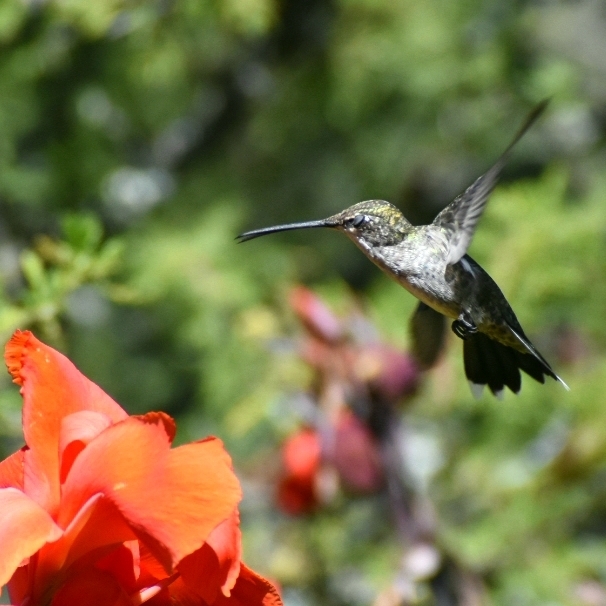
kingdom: Animalia
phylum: Chordata
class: Aves
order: Apodiformes
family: Trochilidae
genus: Heliomaster
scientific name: Heliomaster furcifer
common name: Blue-tufted starthroat
